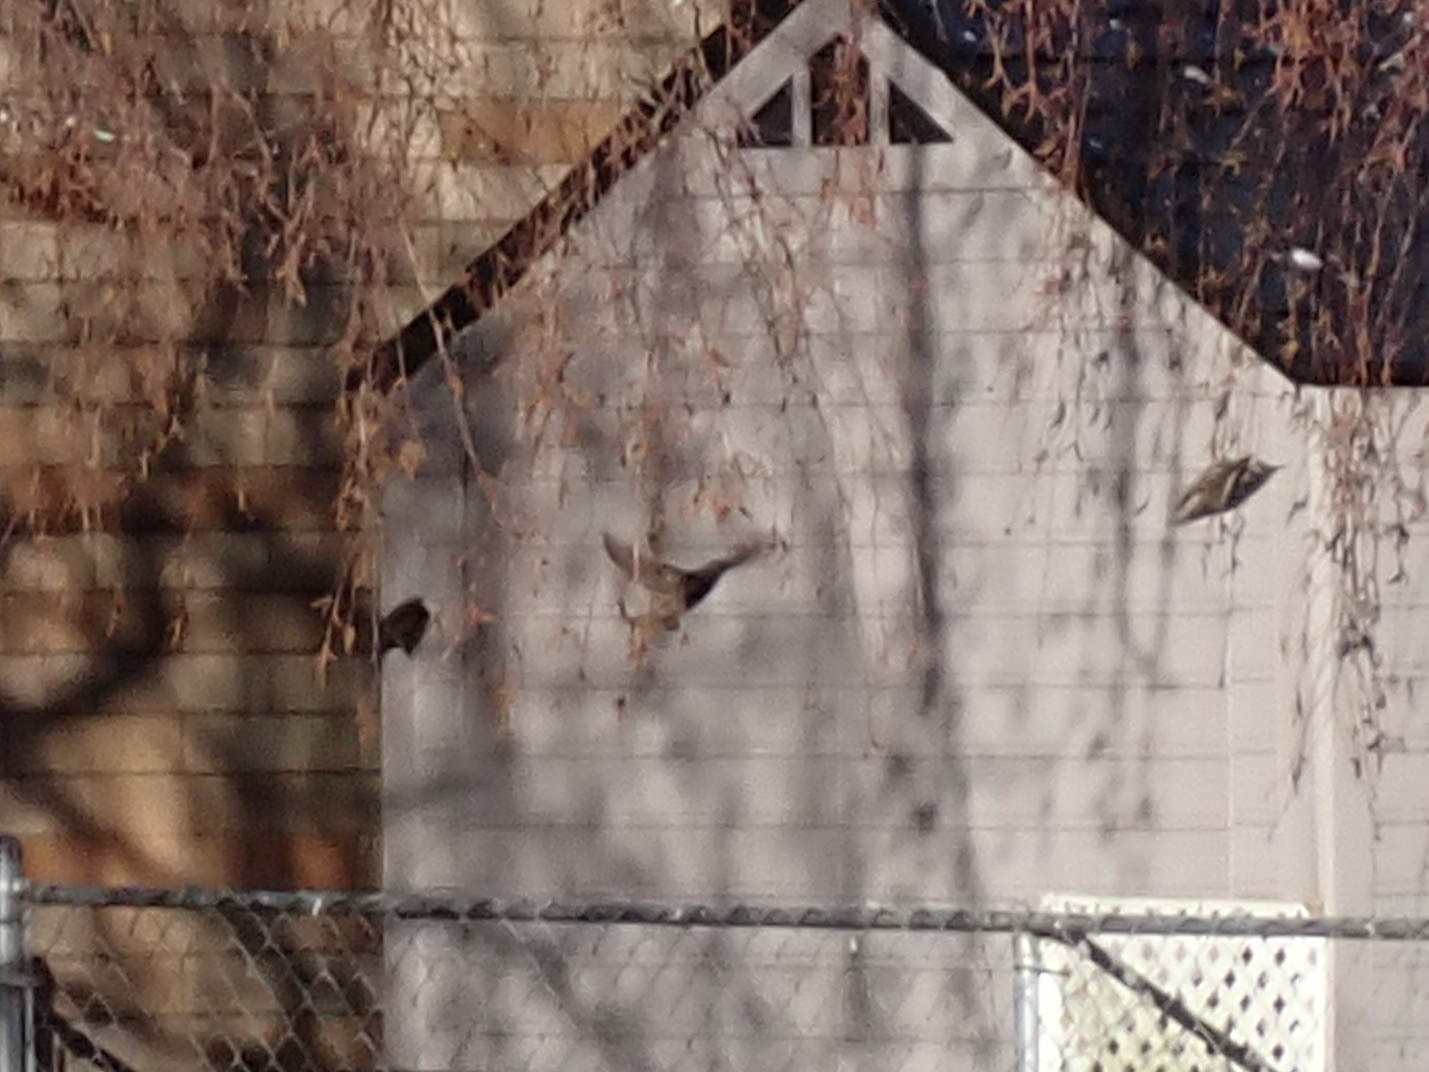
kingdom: Animalia
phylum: Chordata
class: Aves
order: Passeriformes
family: Sturnidae
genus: Sturnus
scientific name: Sturnus vulgaris
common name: Common starling
